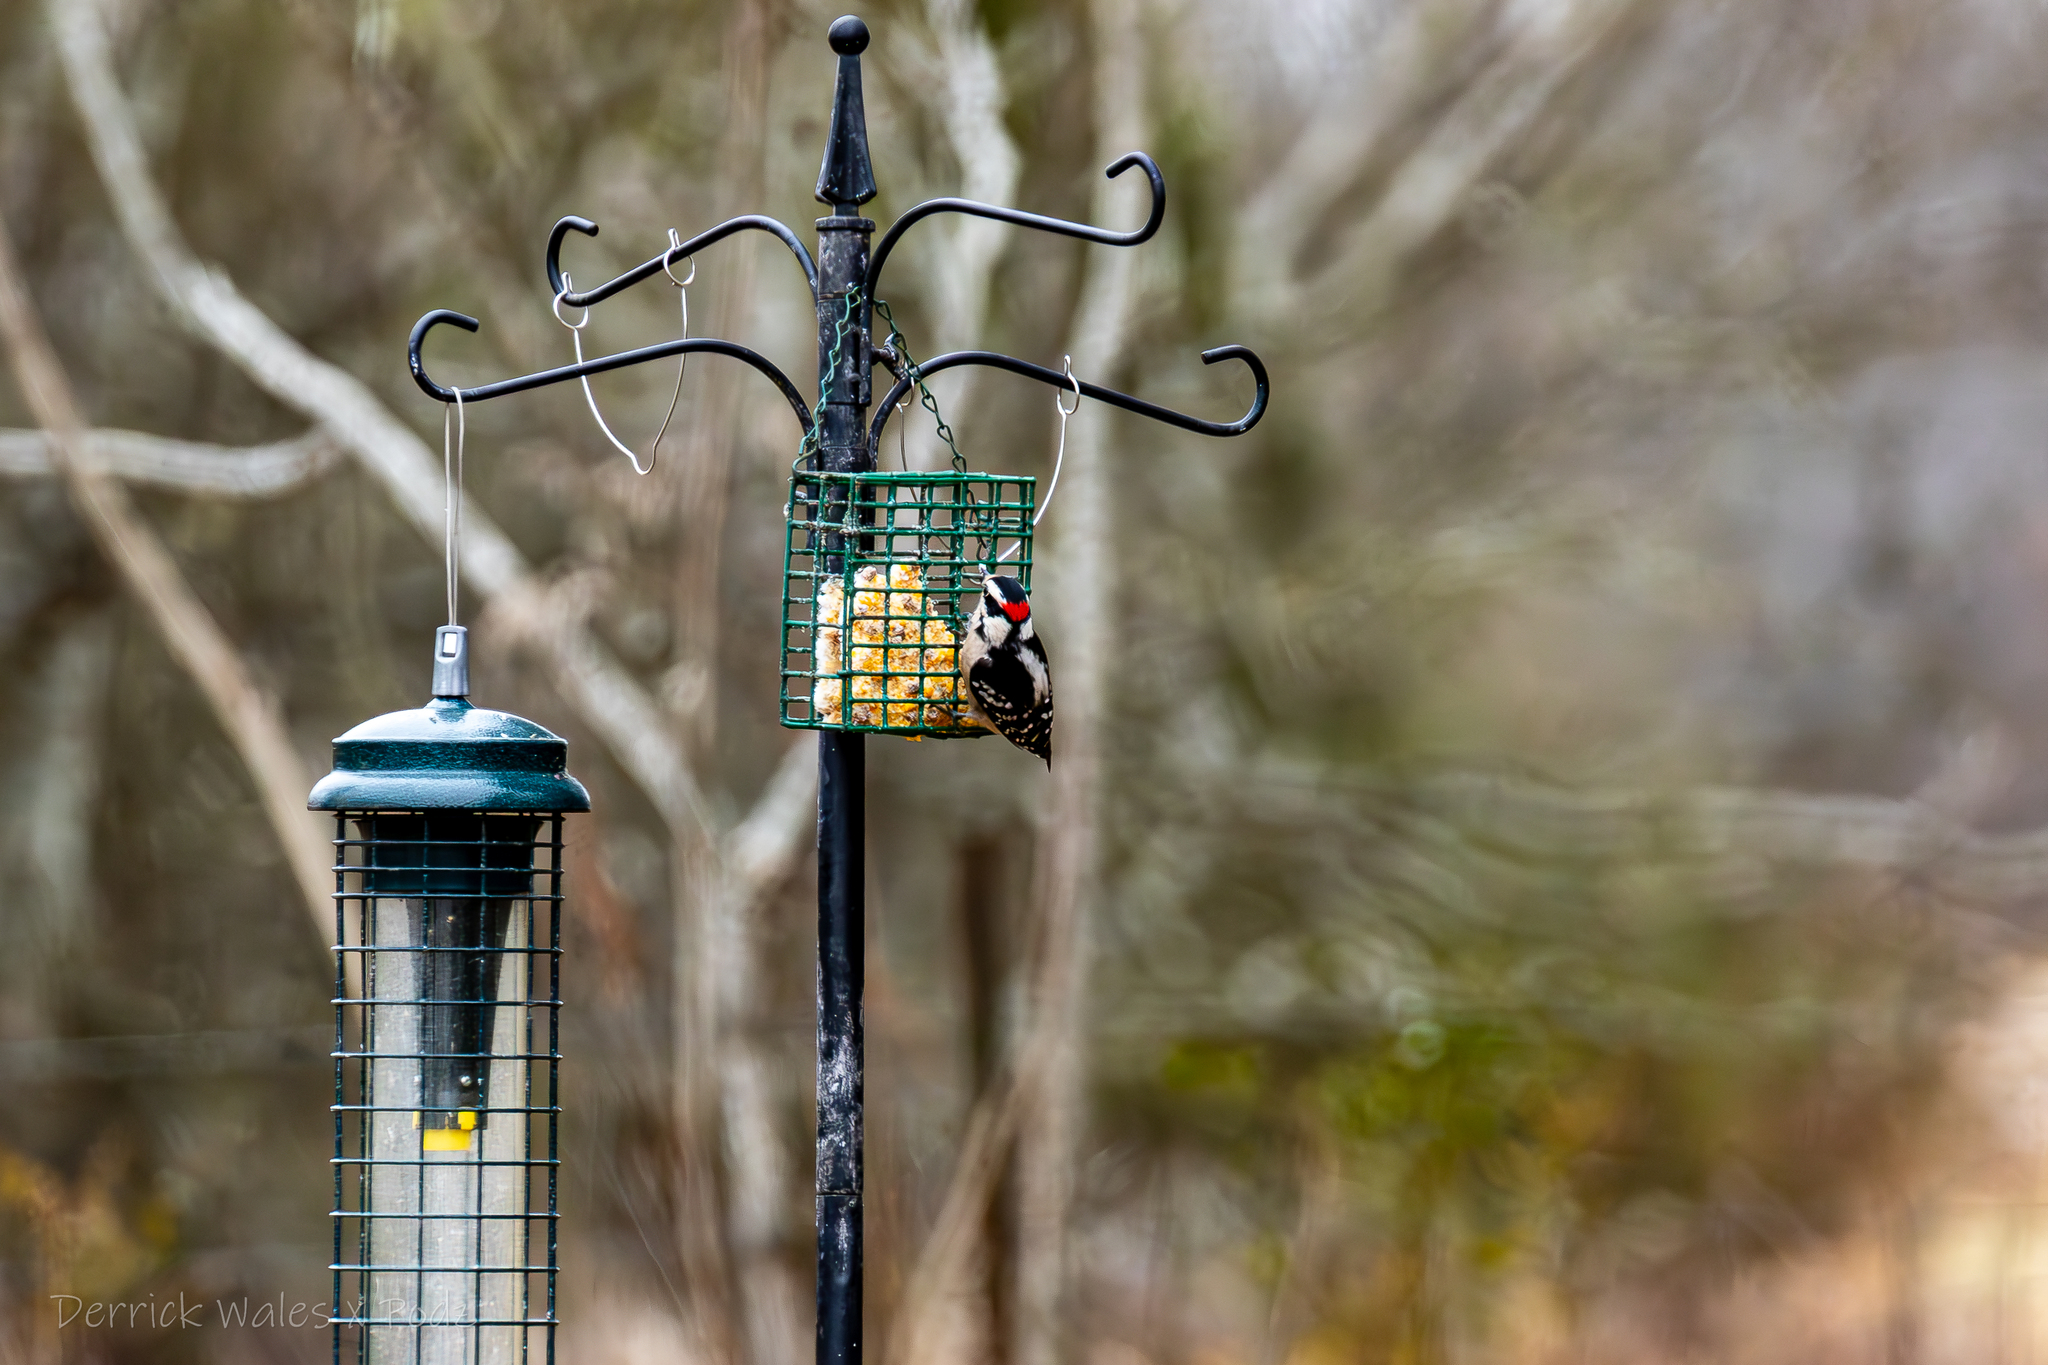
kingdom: Animalia
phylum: Chordata
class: Aves
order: Piciformes
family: Picidae
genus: Dryobates
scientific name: Dryobates pubescens
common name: Downy woodpecker
